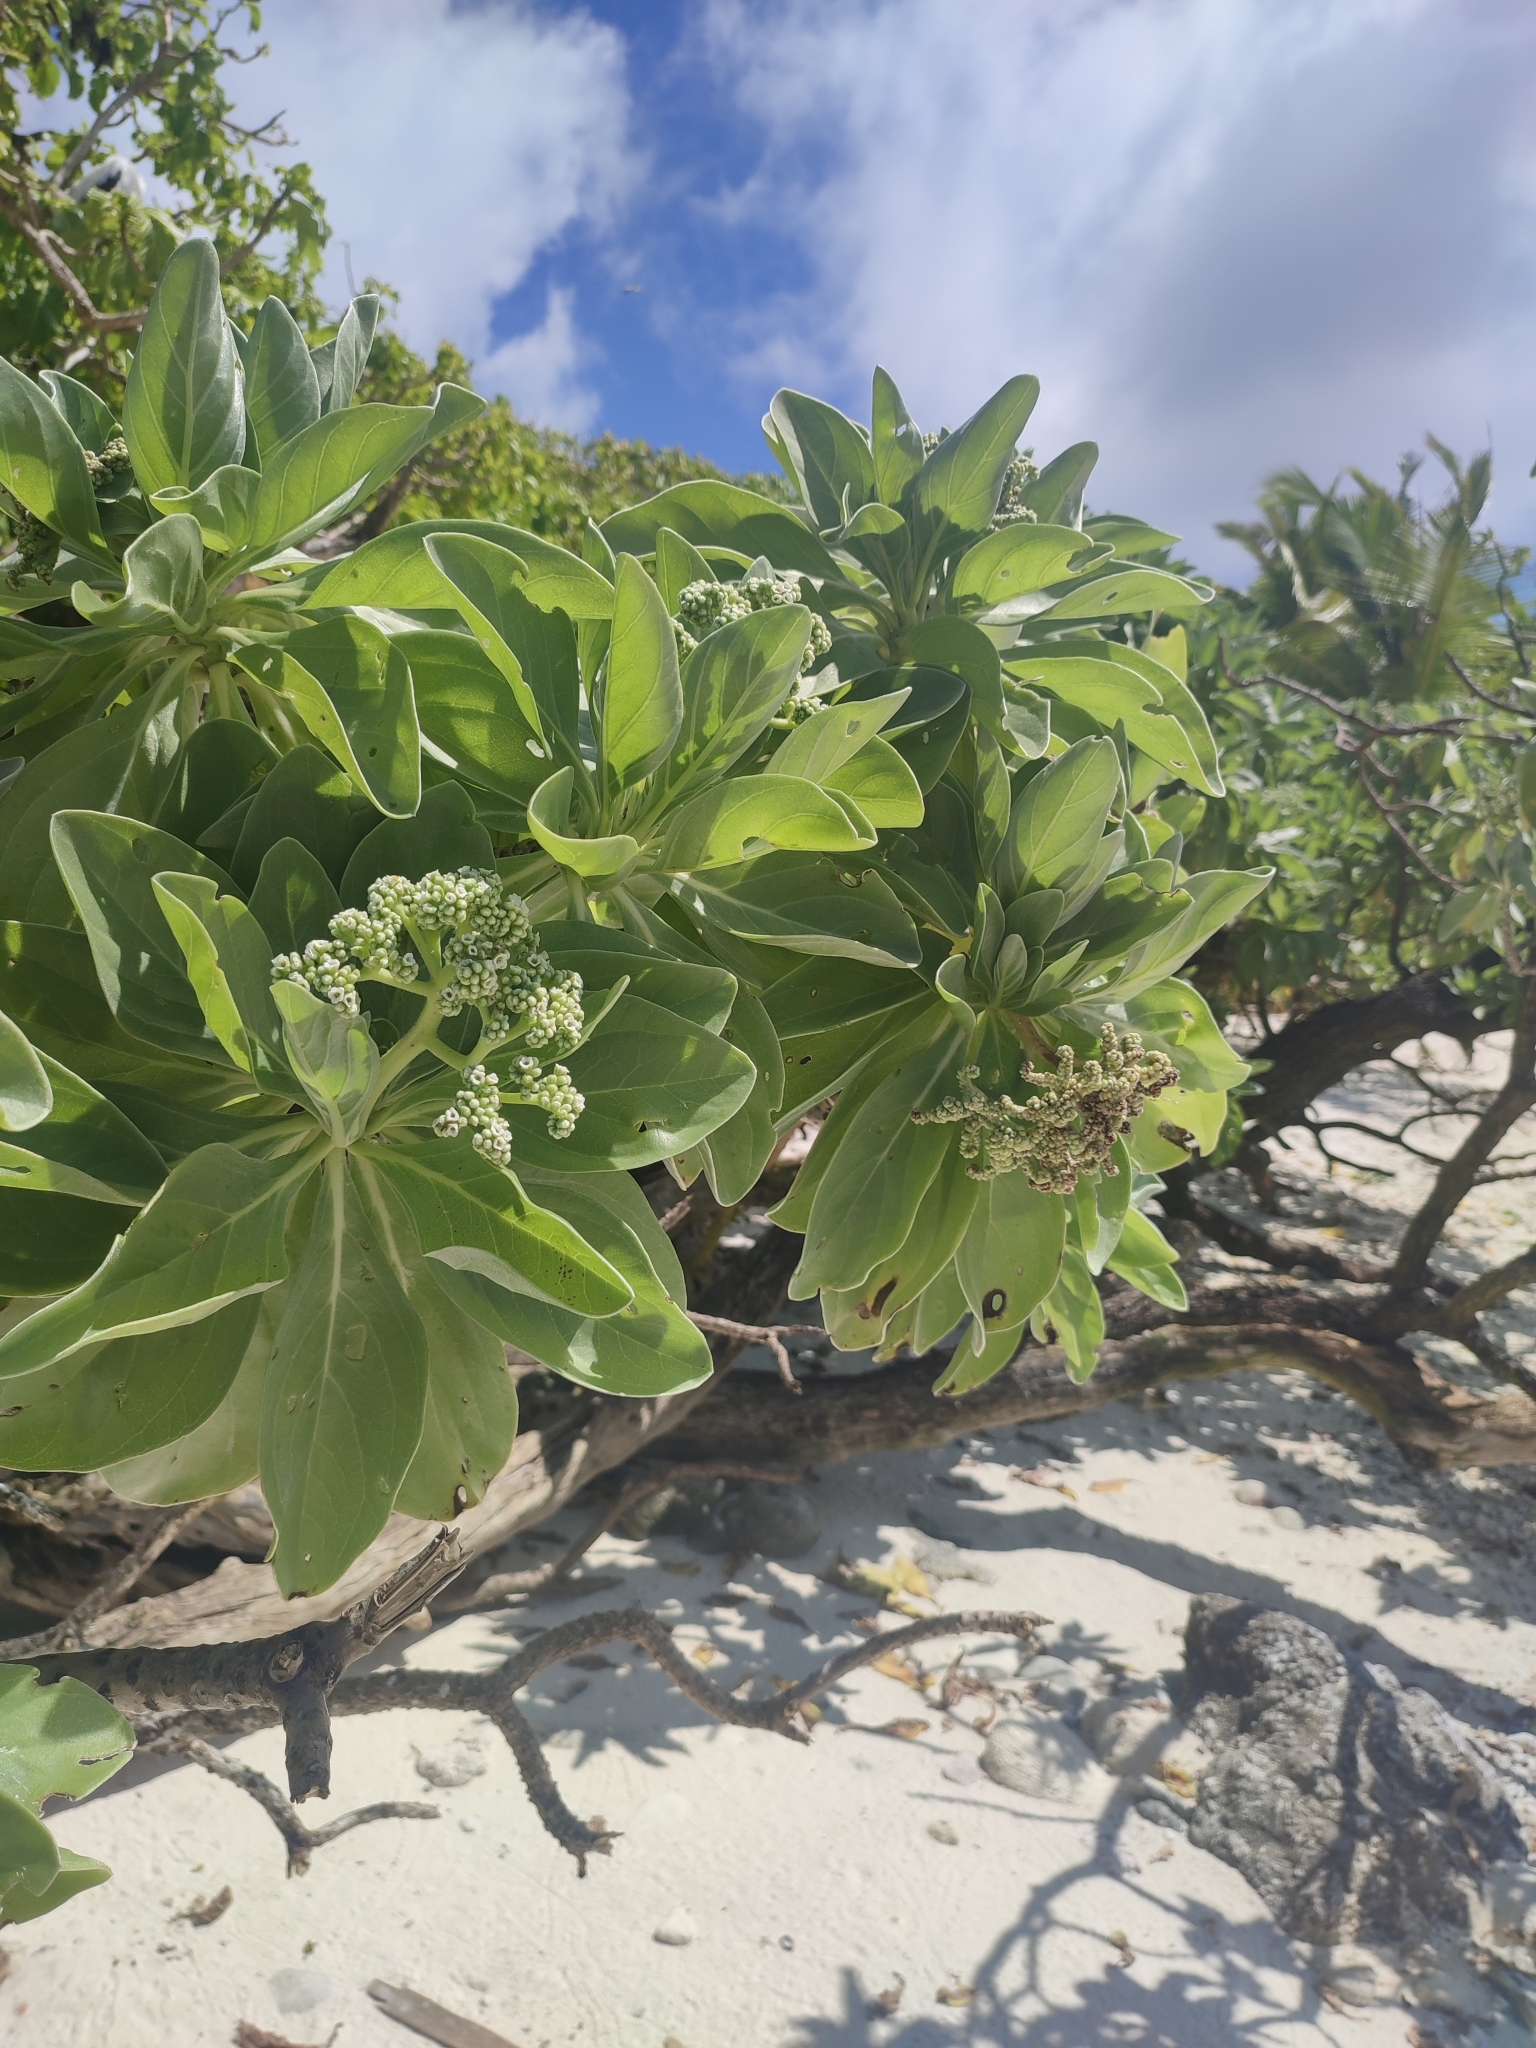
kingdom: Plantae
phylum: Tracheophyta
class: Magnoliopsida
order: Boraginales
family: Heliotropiaceae
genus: Heliotropium
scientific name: Heliotropium velutinum
